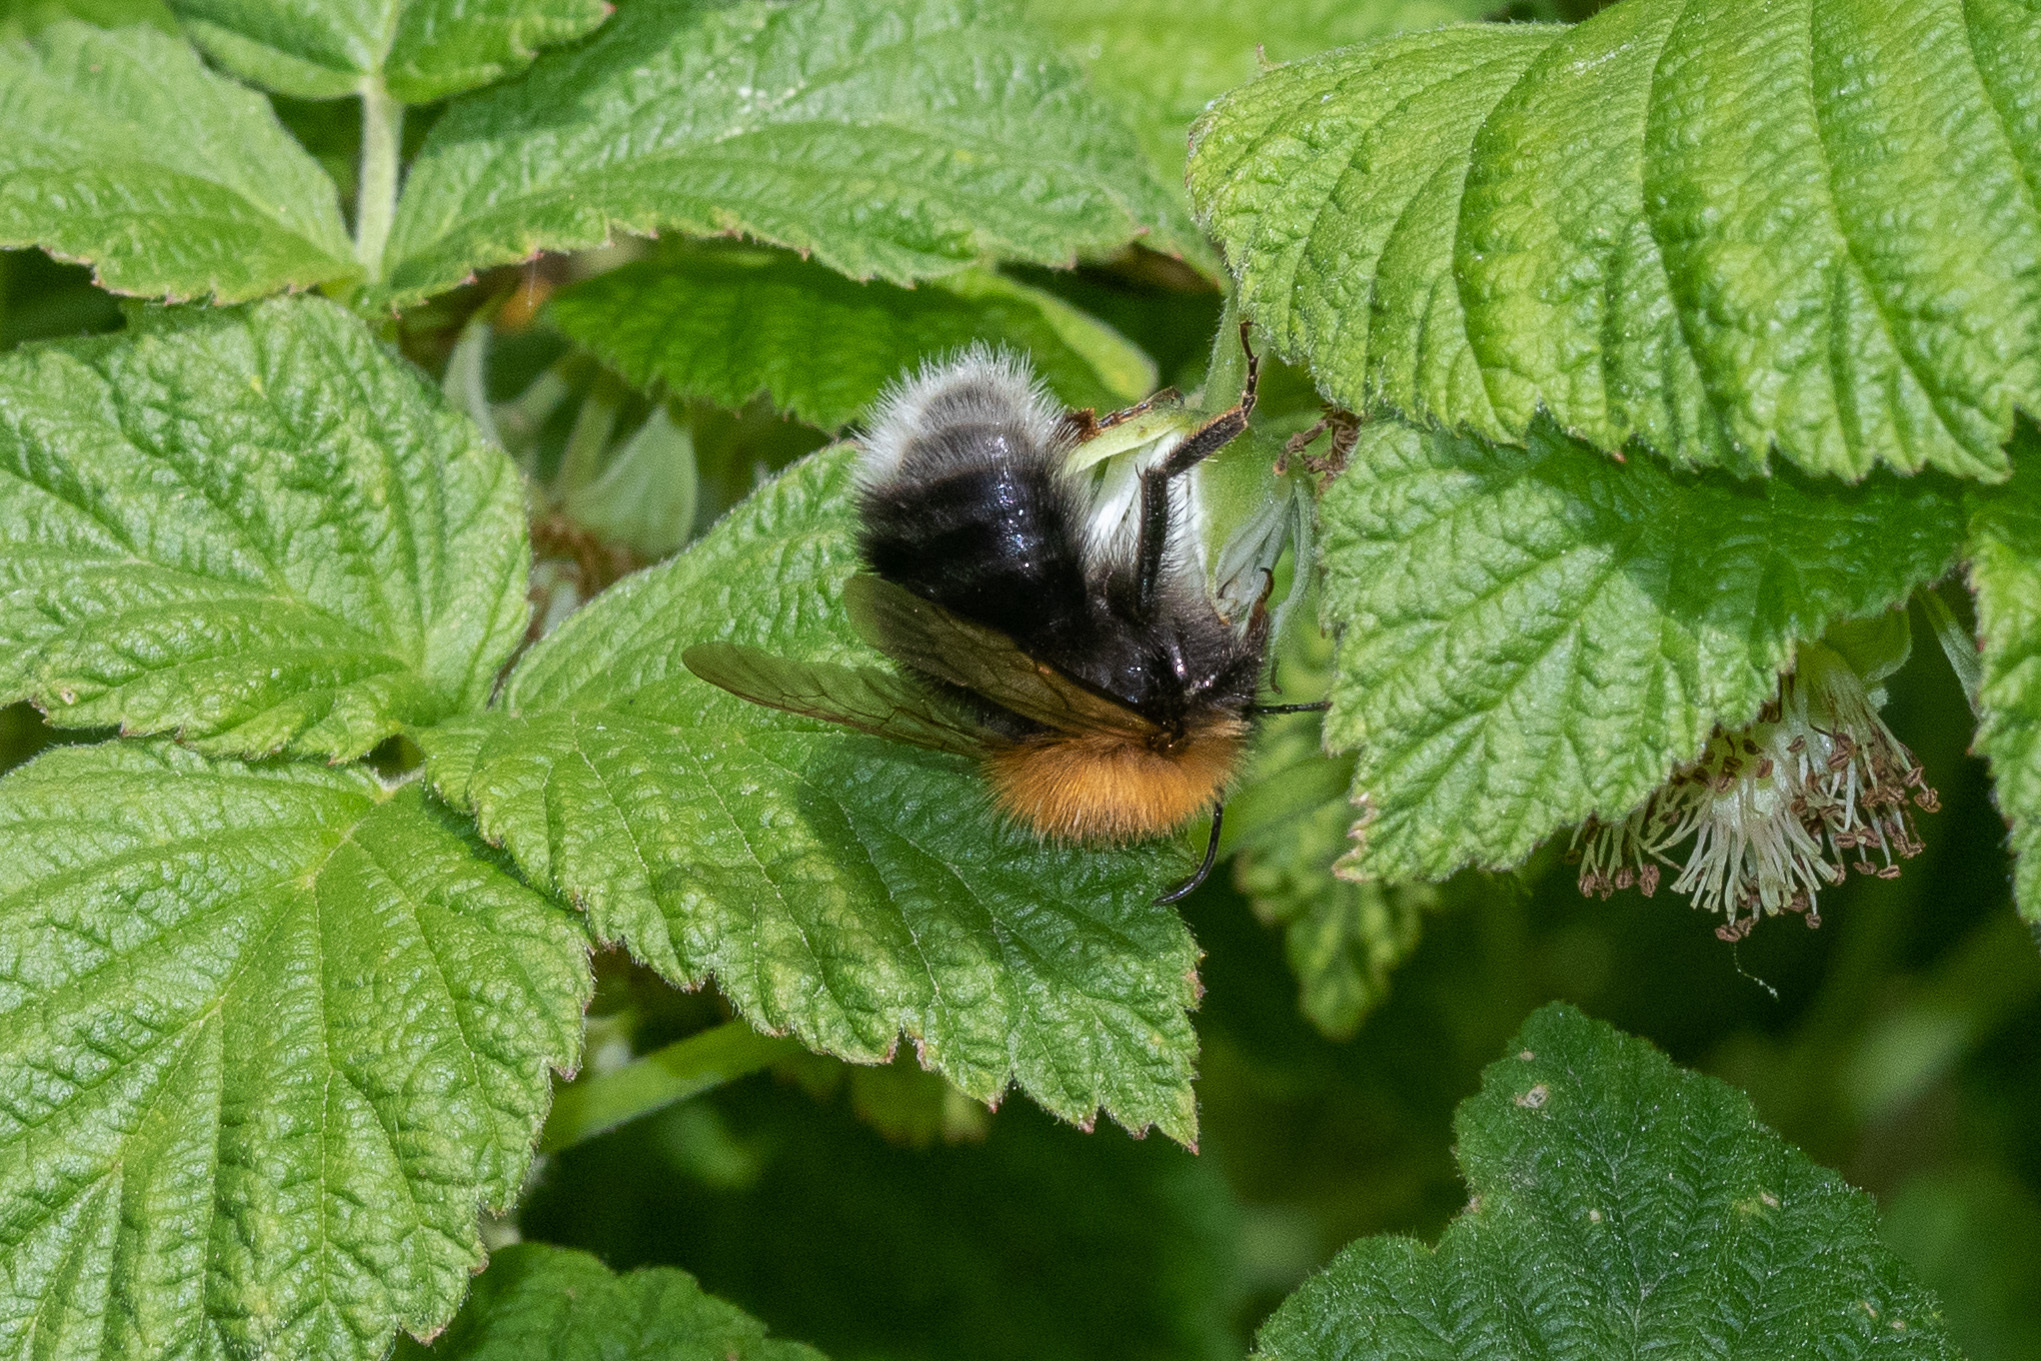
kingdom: Animalia
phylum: Arthropoda
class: Insecta
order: Hymenoptera
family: Apidae
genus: Bombus
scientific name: Bombus hypnorum
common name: New garden bumblebee
